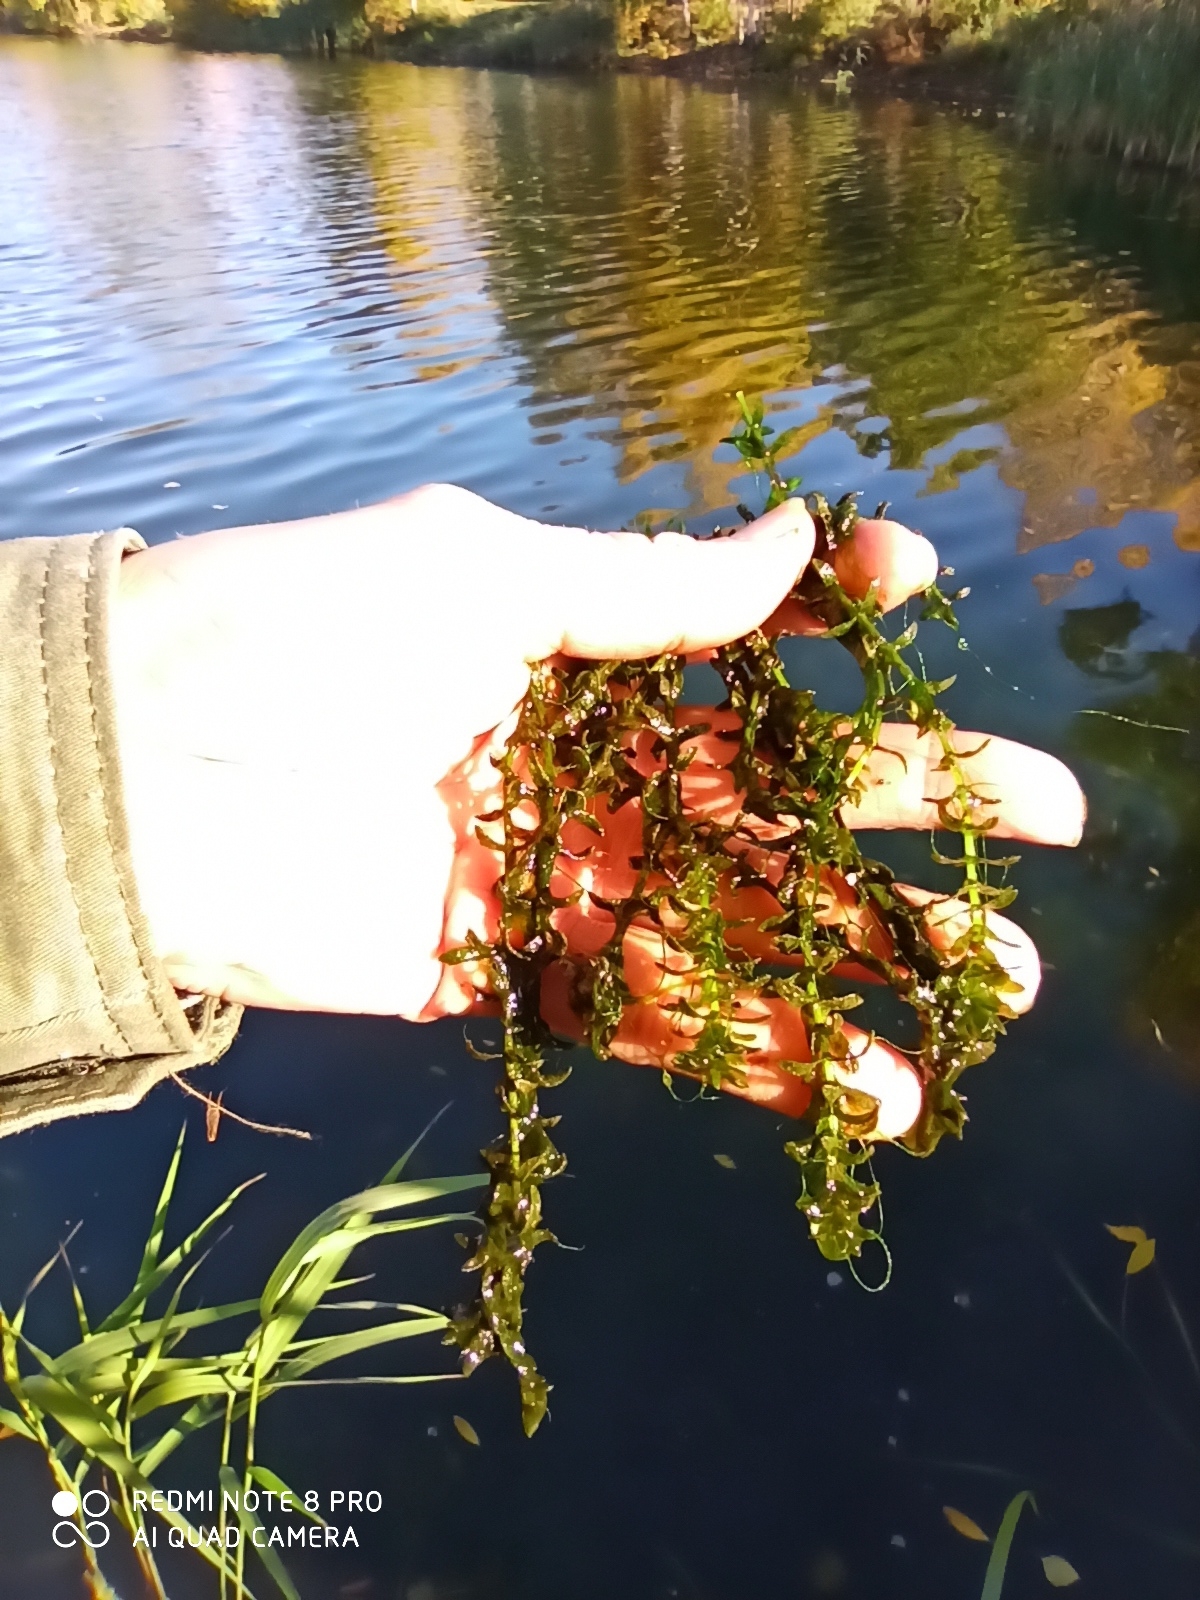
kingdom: Plantae
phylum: Tracheophyta
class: Liliopsida
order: Alismatales
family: Hydrocharitaceae
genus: Elodea
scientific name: Elodea canadensis
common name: Canadian waterweed
